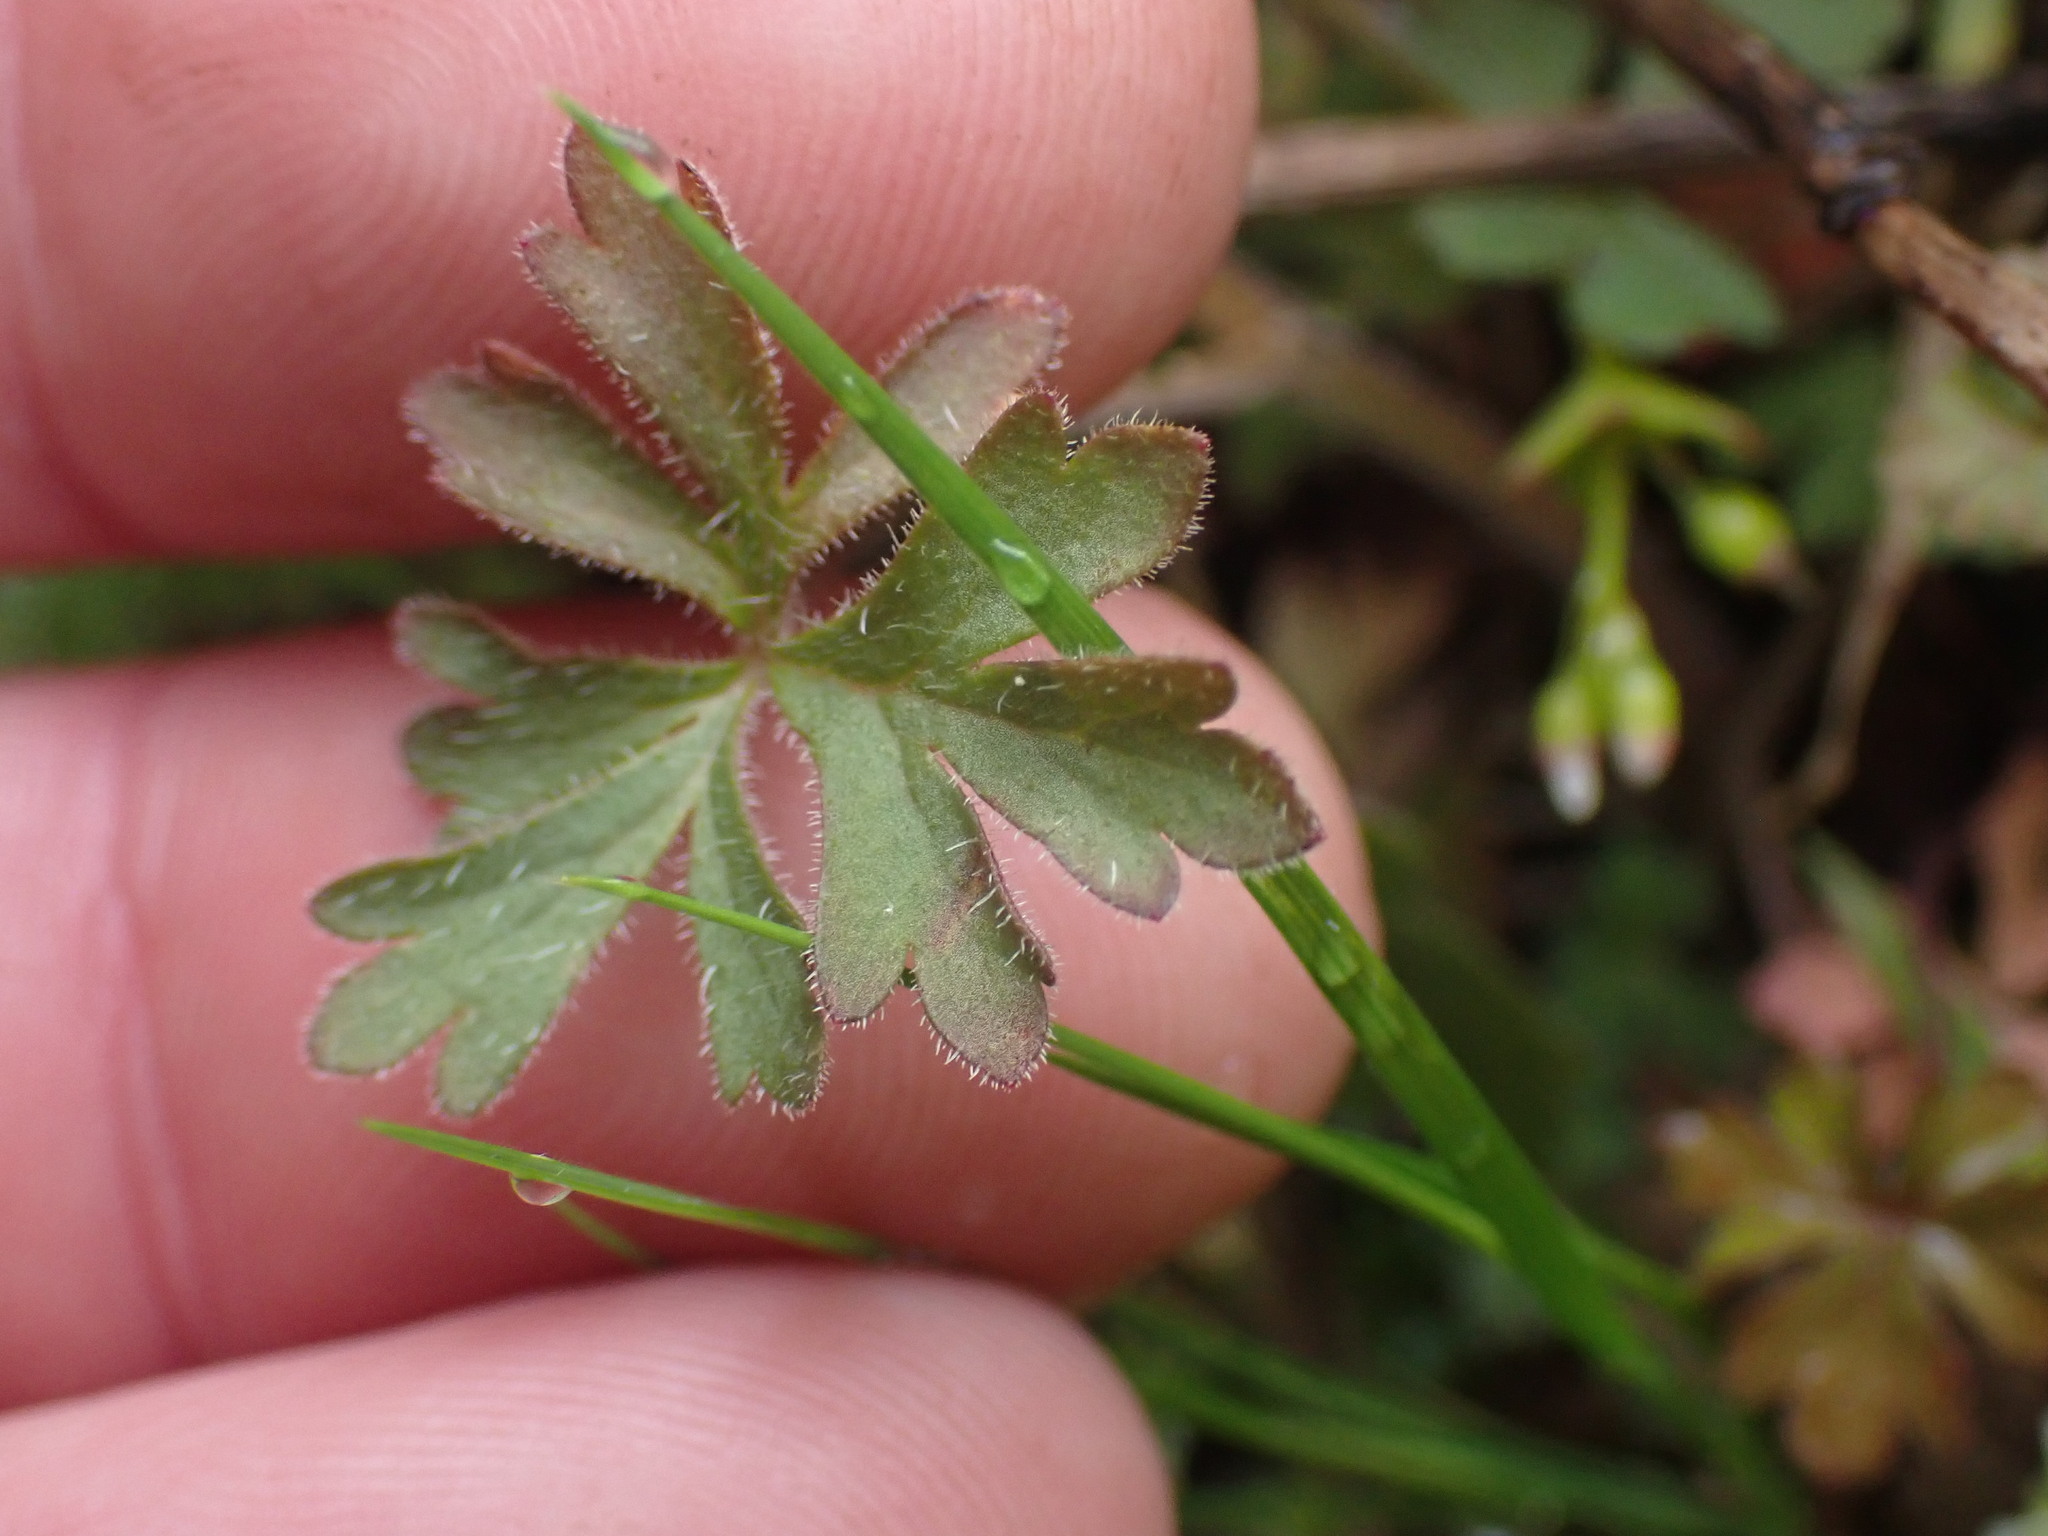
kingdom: Plantae
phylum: Tracheophyta
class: Magnoliopsida
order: Saxifragales
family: Saxifragaceae
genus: Lithophragma
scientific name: Lithophragma parviflorum
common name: Small-flowered fringe-cup
